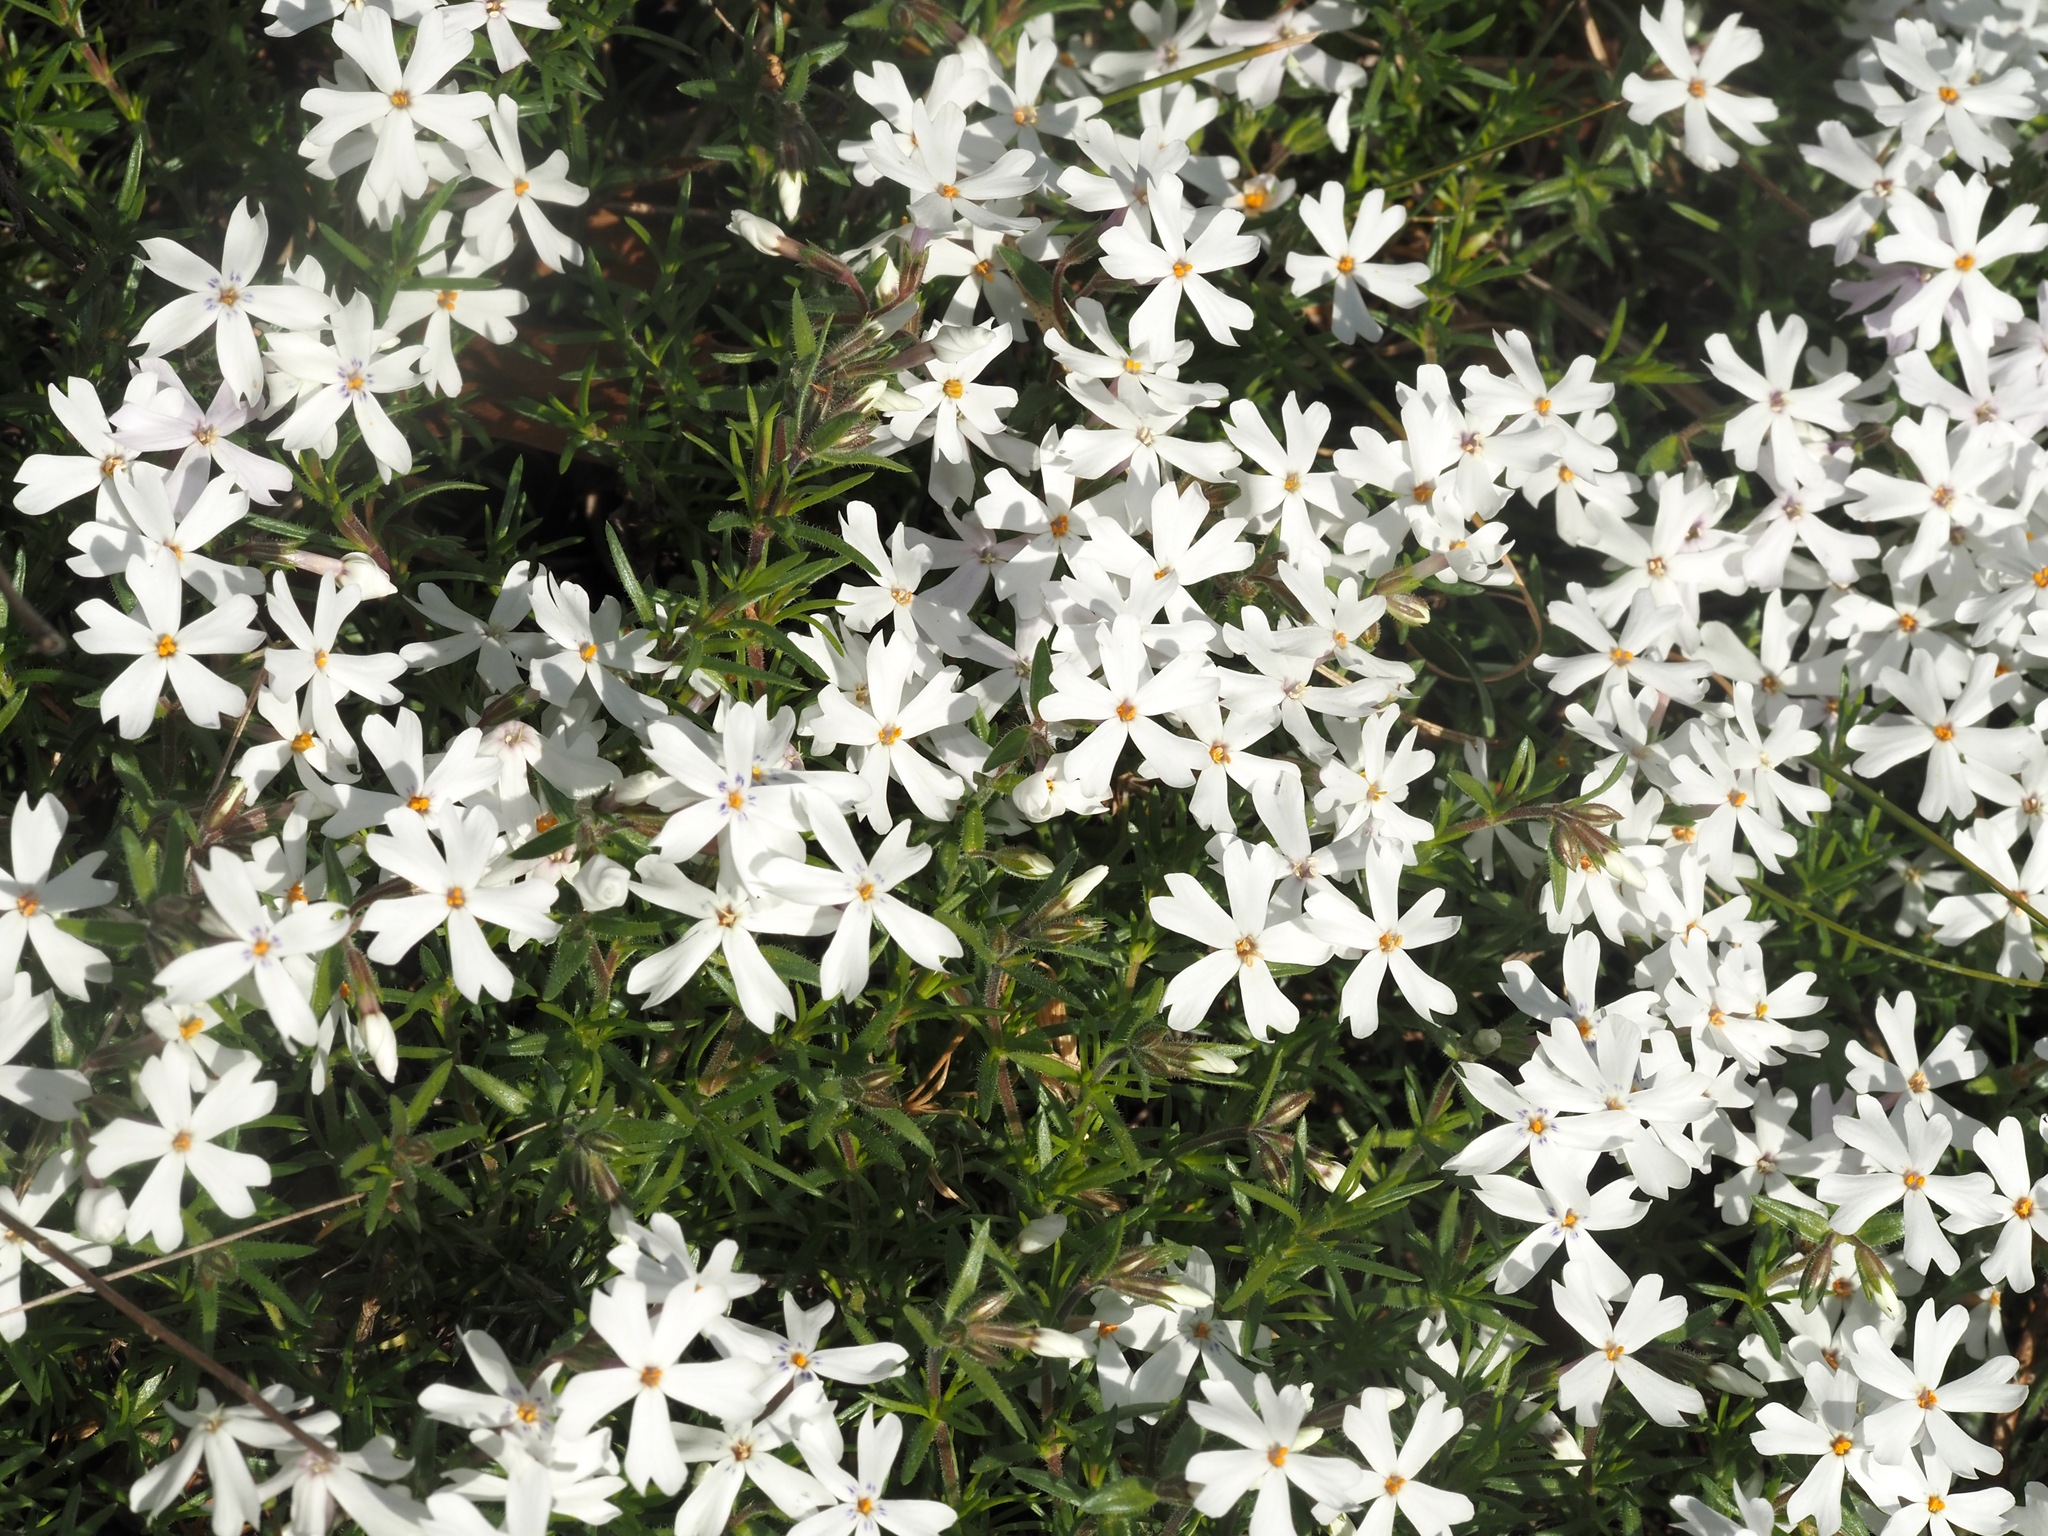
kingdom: Plantae
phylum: Tracheophyta
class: Magnoliopsida
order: Ericales
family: Polemoniaceae
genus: Phlox
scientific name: Phlox subulata
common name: Moss phlox
